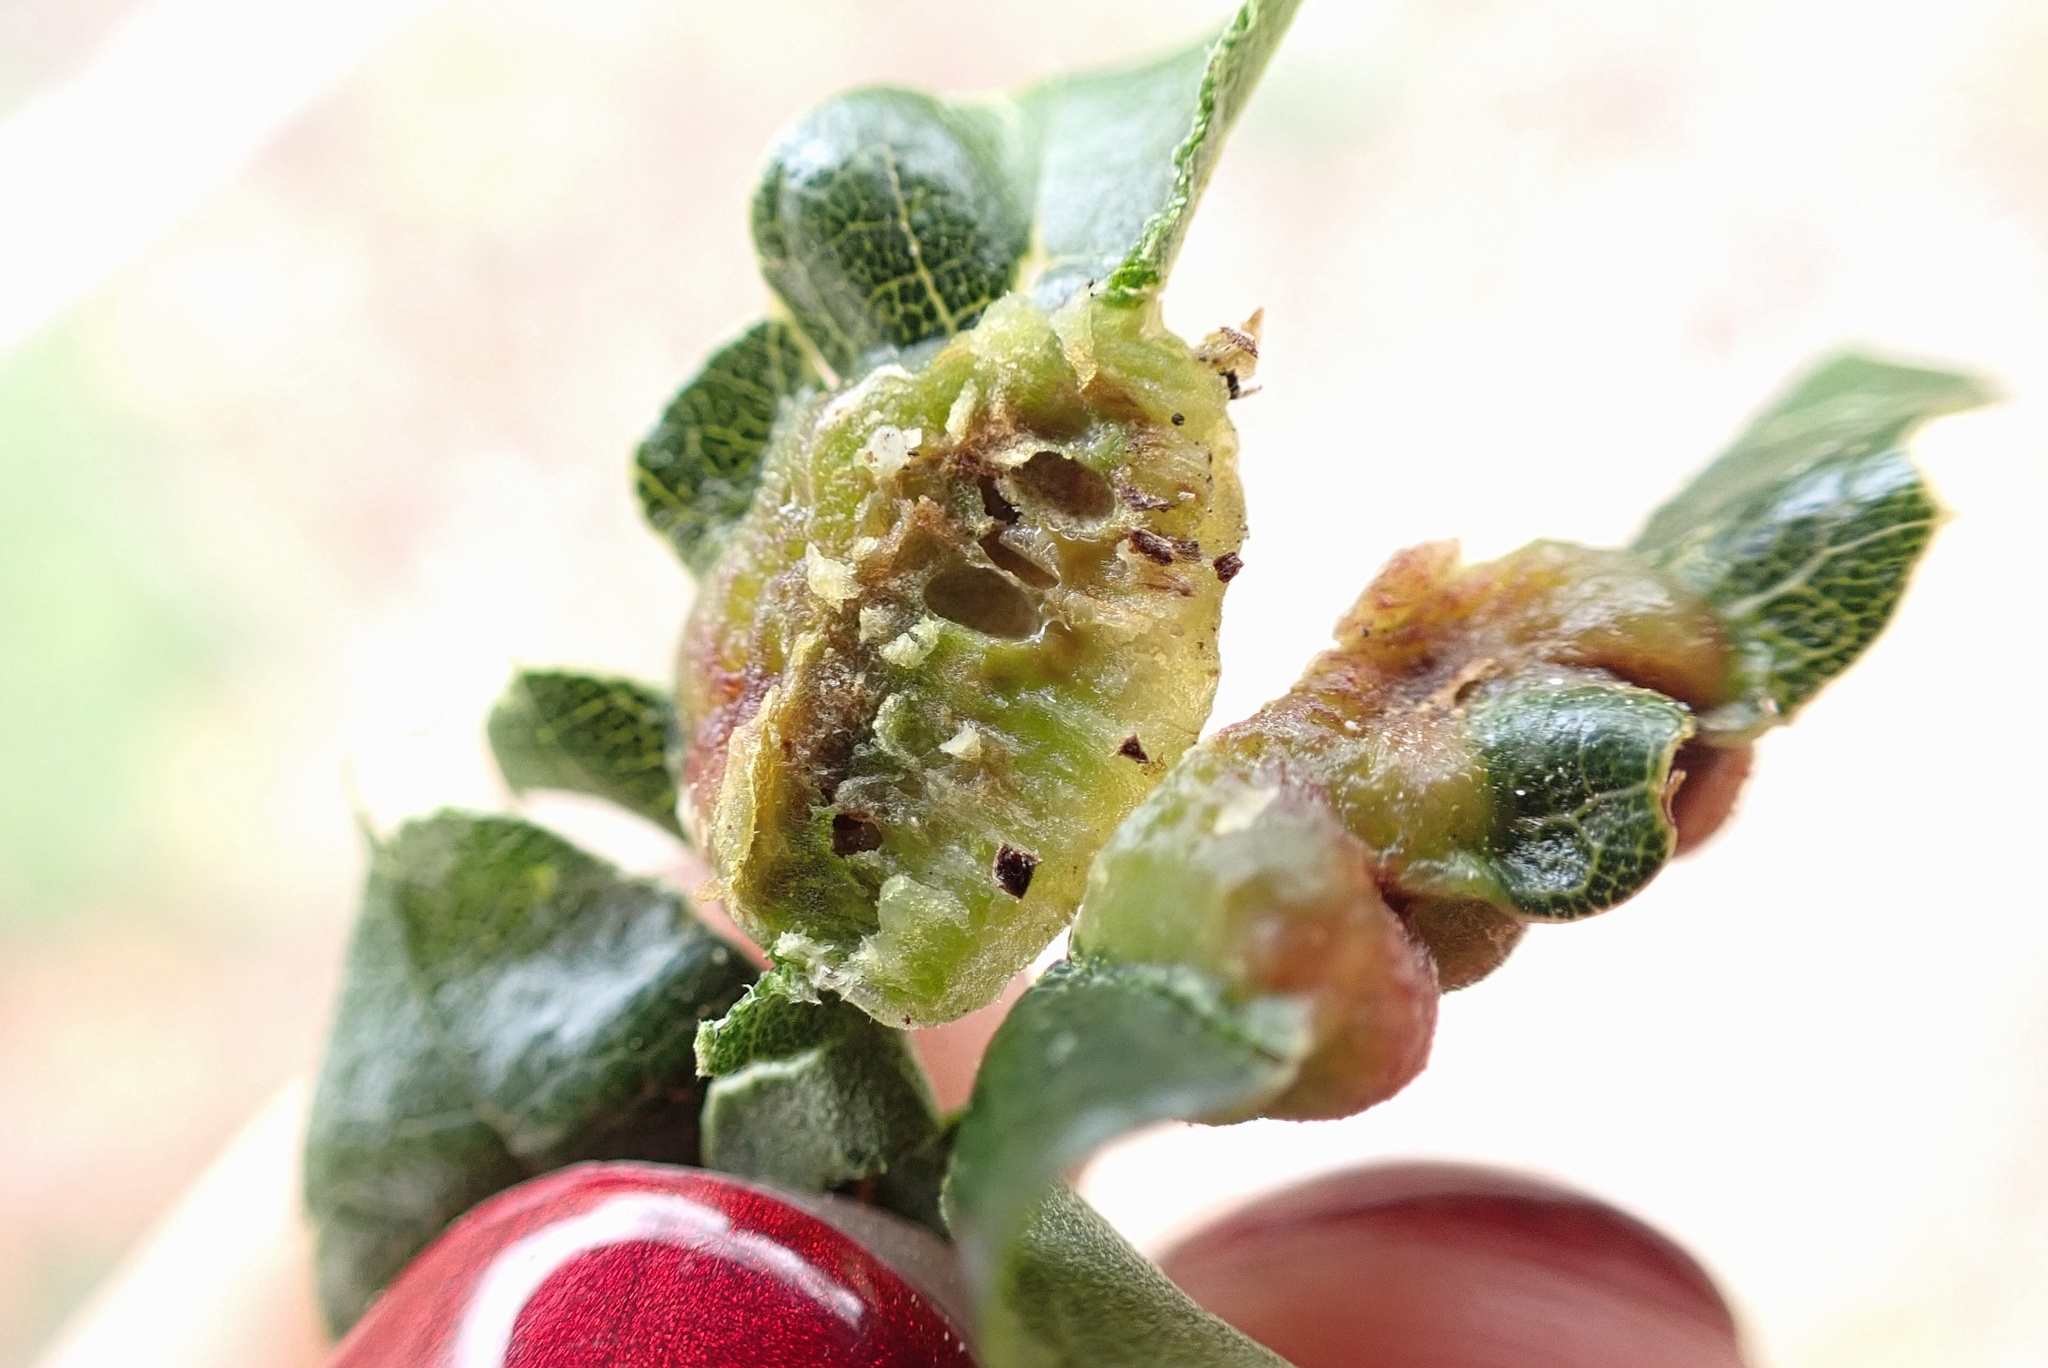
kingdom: Animalia
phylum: Arthropoda
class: Insecta
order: Hymenoptera
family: Cynipidae
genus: Neuroterus
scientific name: Neuroterus
